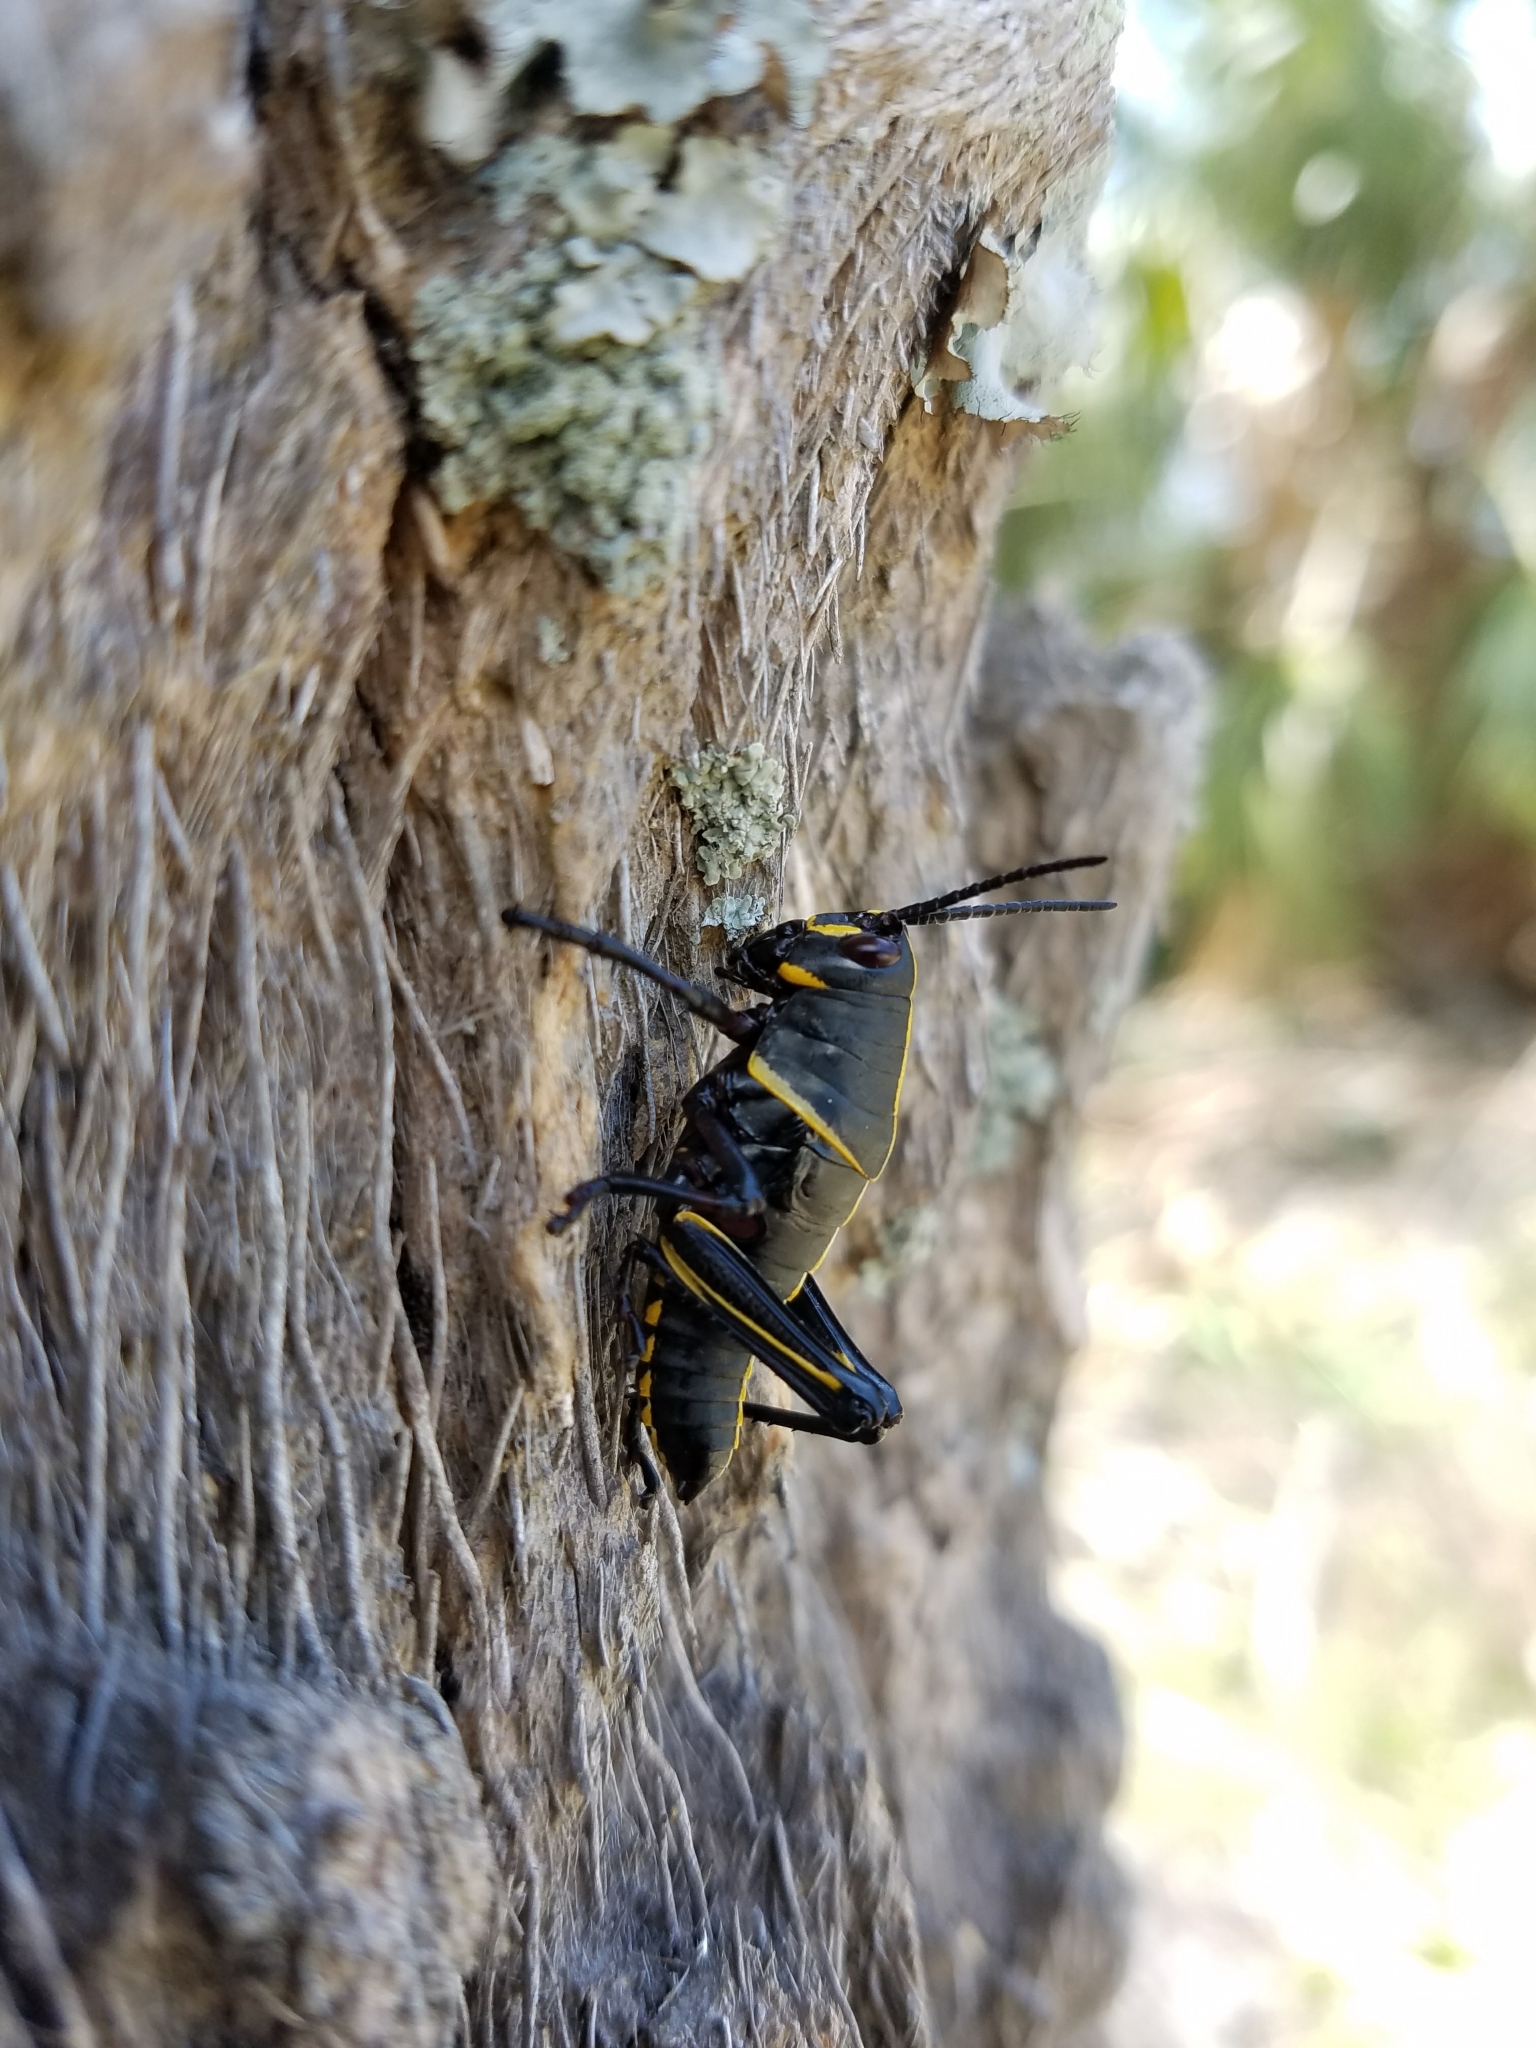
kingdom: Animalia
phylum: Arthropoda
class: Insecta
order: Orthoptera
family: Romaleidae
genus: Romalea
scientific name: Romalea microptera
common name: Eastern lubber grasshopper
